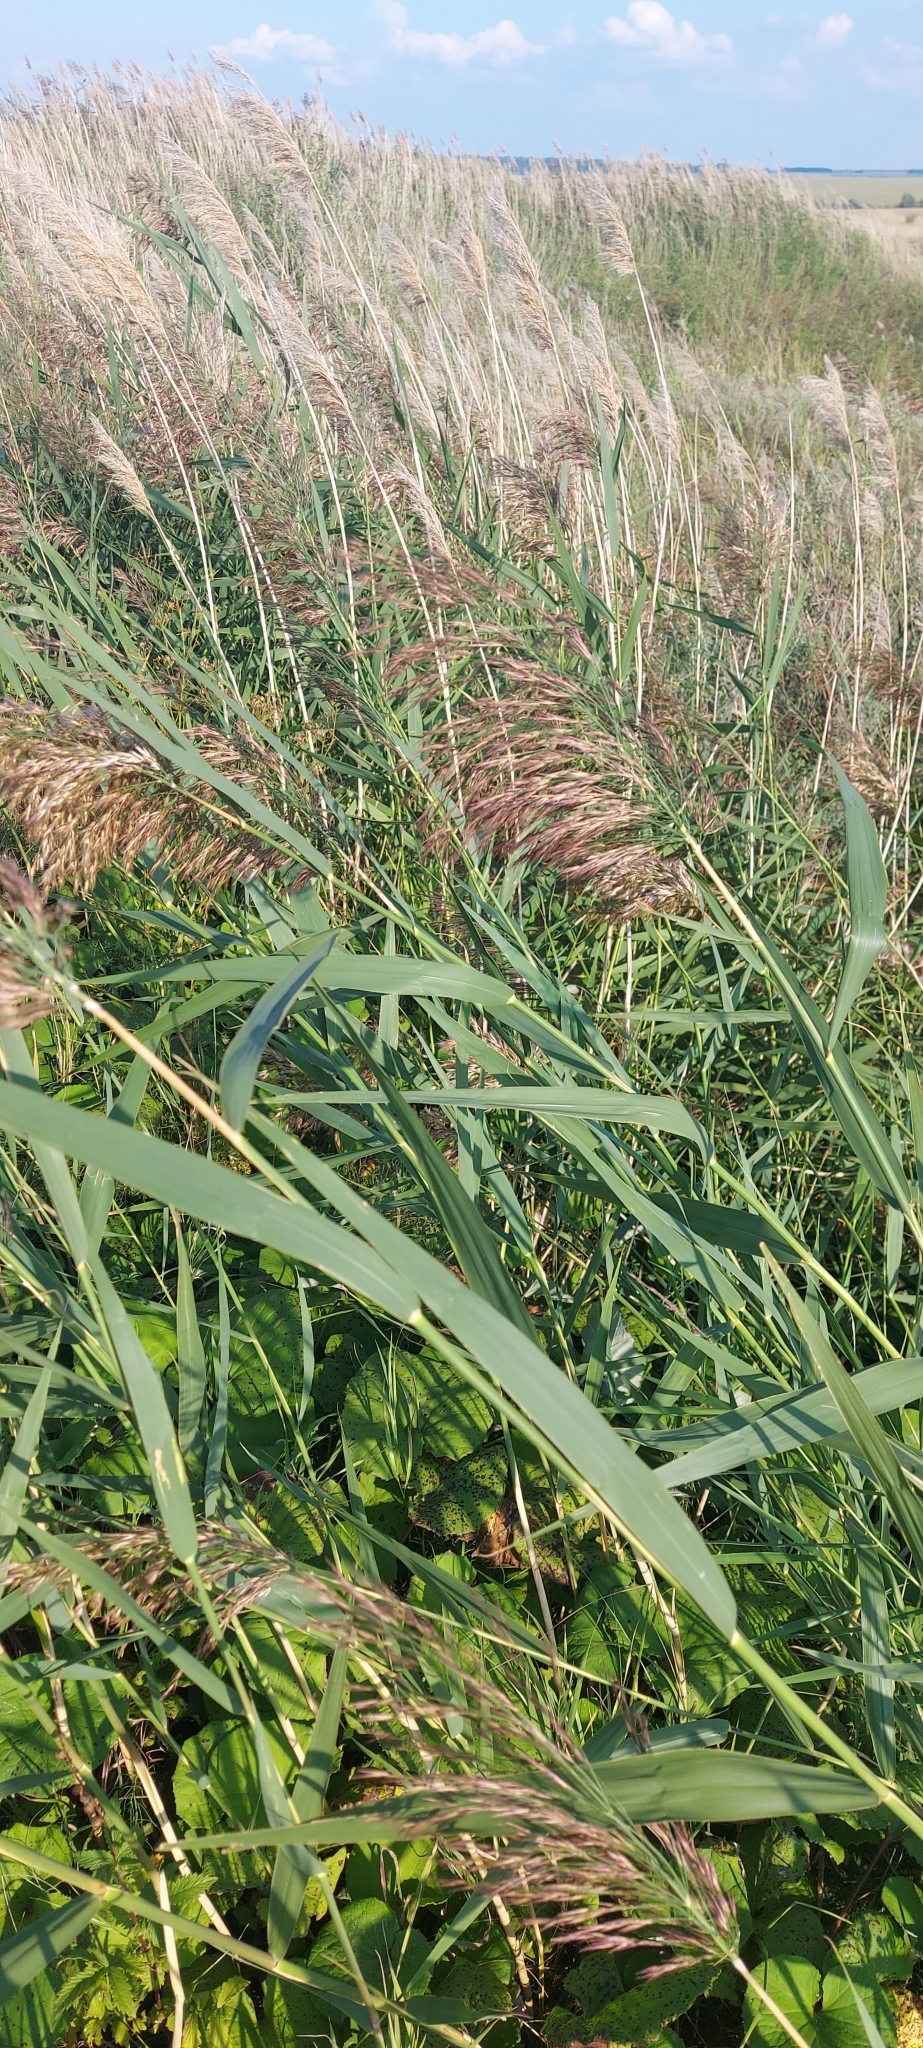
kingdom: Plantae
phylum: Tracheophyta
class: Liliopsida
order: Poales
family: Poaceae
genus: Phragmites
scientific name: Phragmites australis
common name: Common reed
